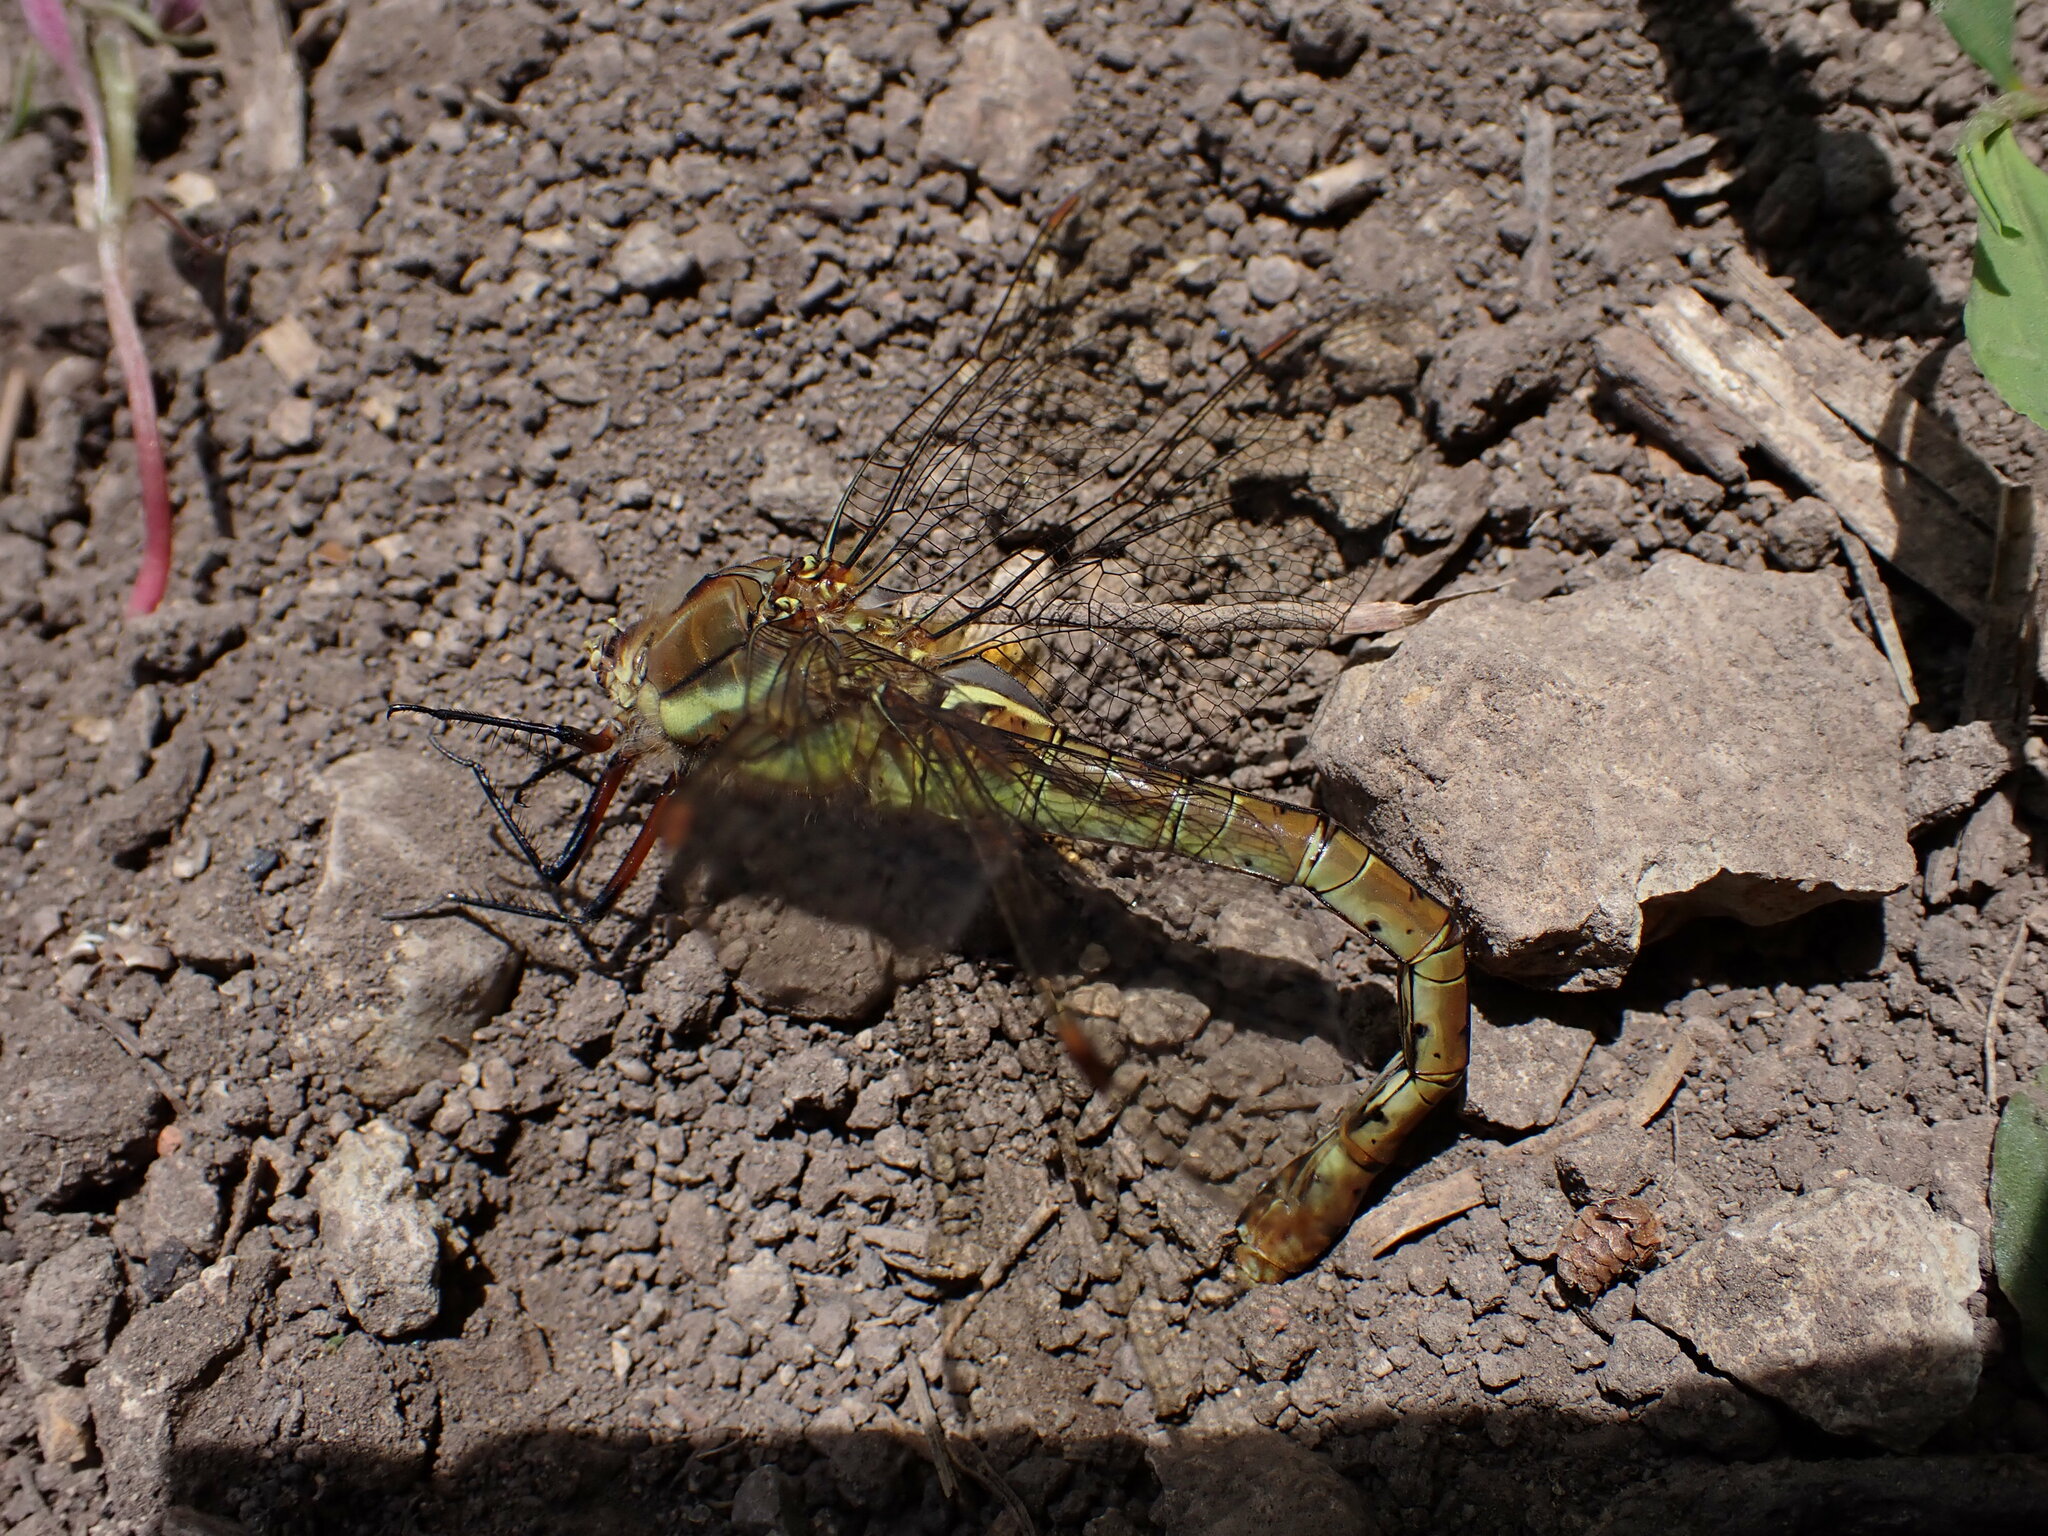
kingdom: Animalia
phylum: Arthropoda
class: Insecta
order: Odonata
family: Aeshnidae
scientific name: Aeshnidae
